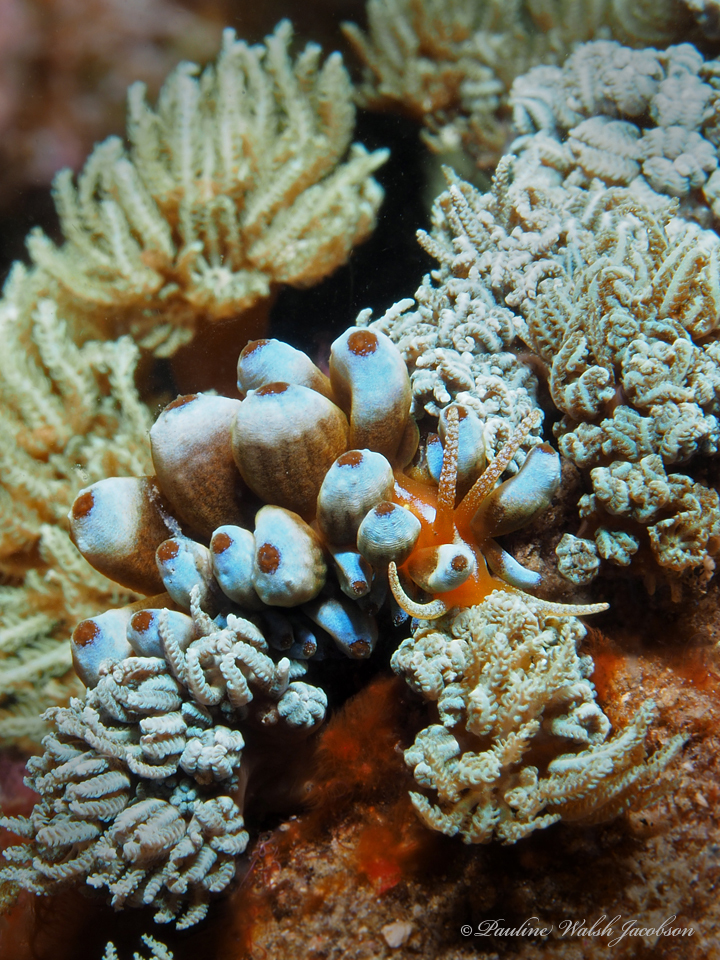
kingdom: Animalia
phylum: Mollusca
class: Gastropoda
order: Nudibranchia
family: Myrrhinidae
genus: Phyllodesmium
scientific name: Phyllodesmium kabiranum
